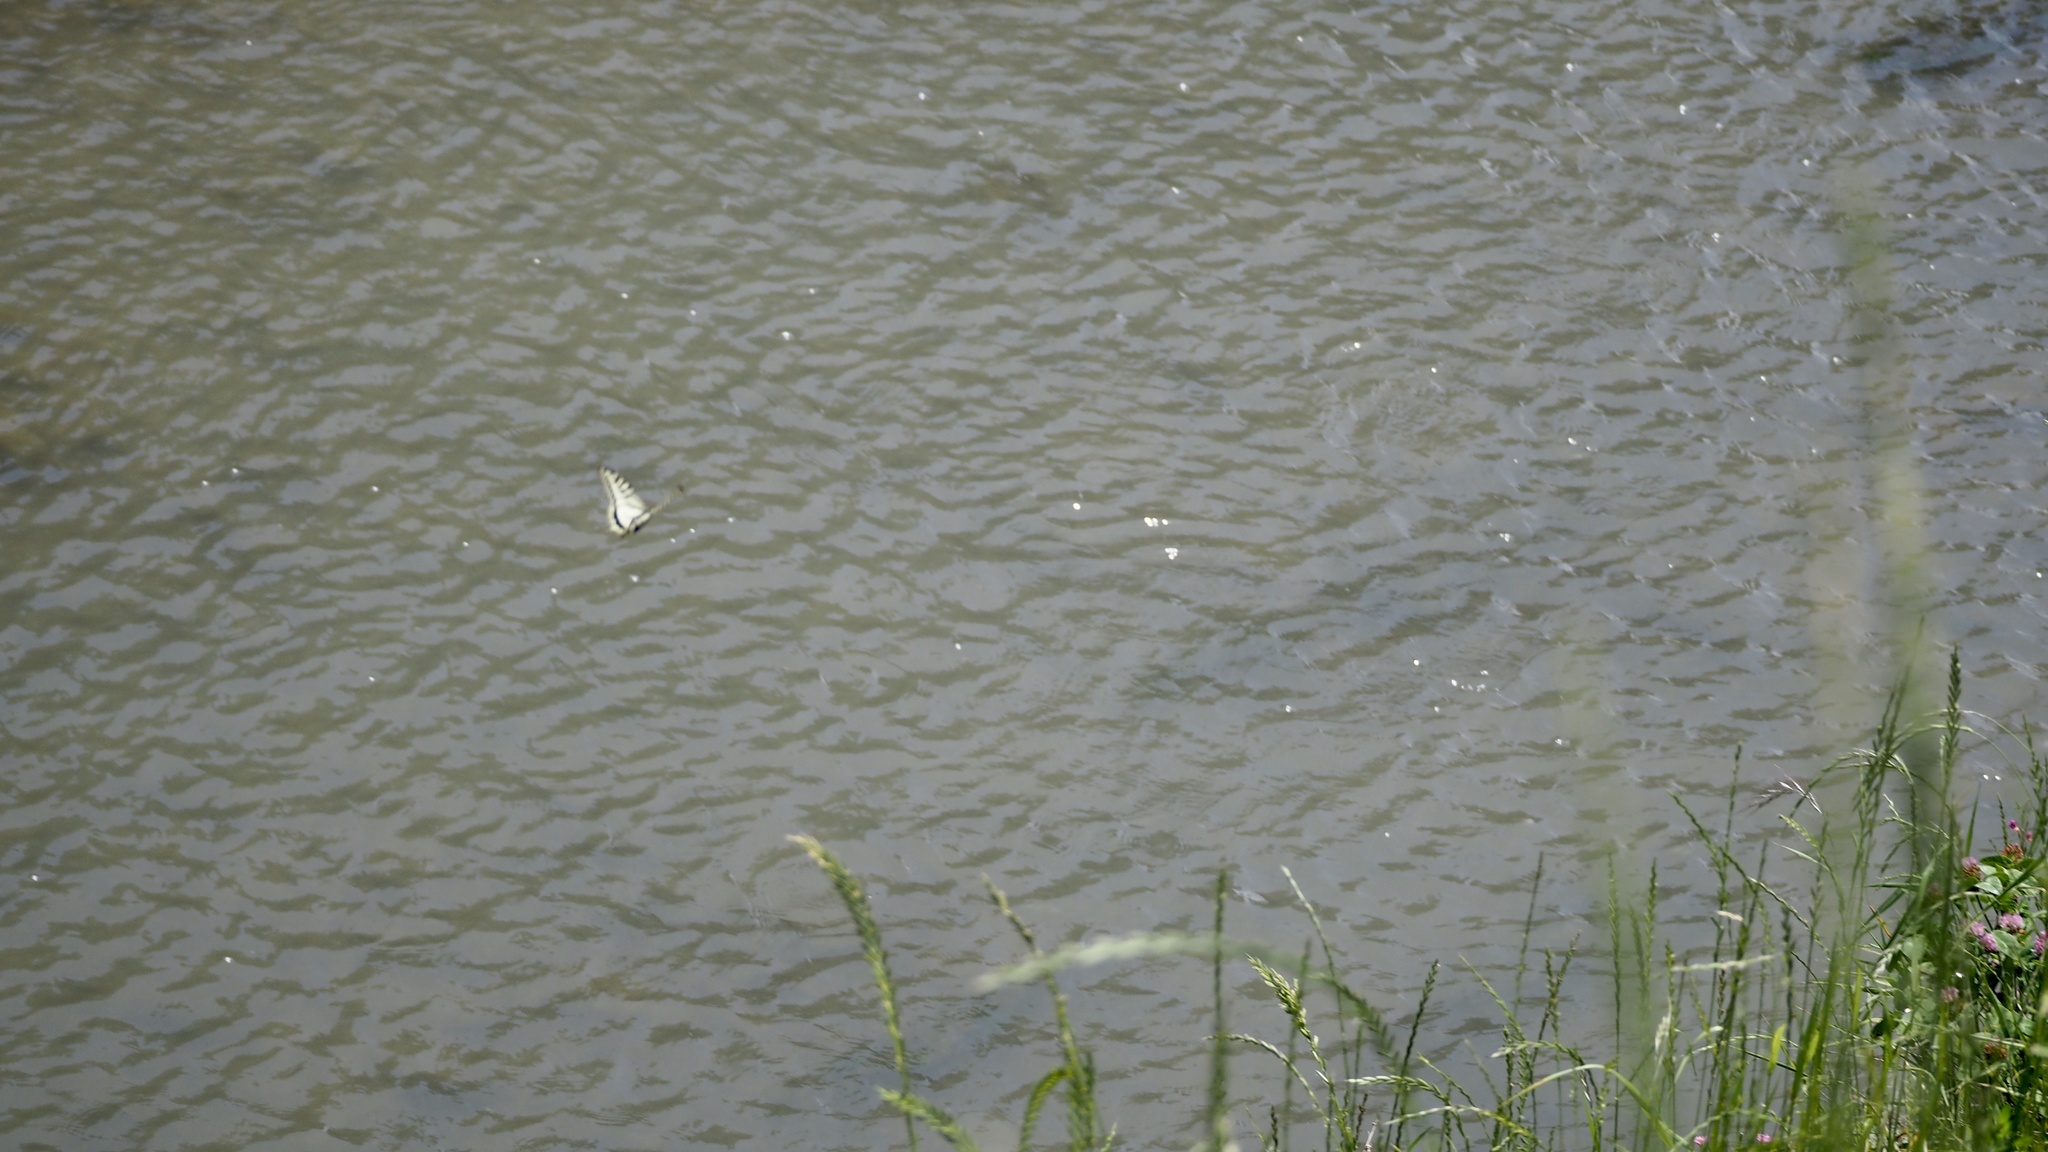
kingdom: Animalia
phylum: Arthropoda
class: Insecta
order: Lepidoptera
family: Papilionidae
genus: Papilio
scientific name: Papilio xuthus
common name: Asian swallowtail
